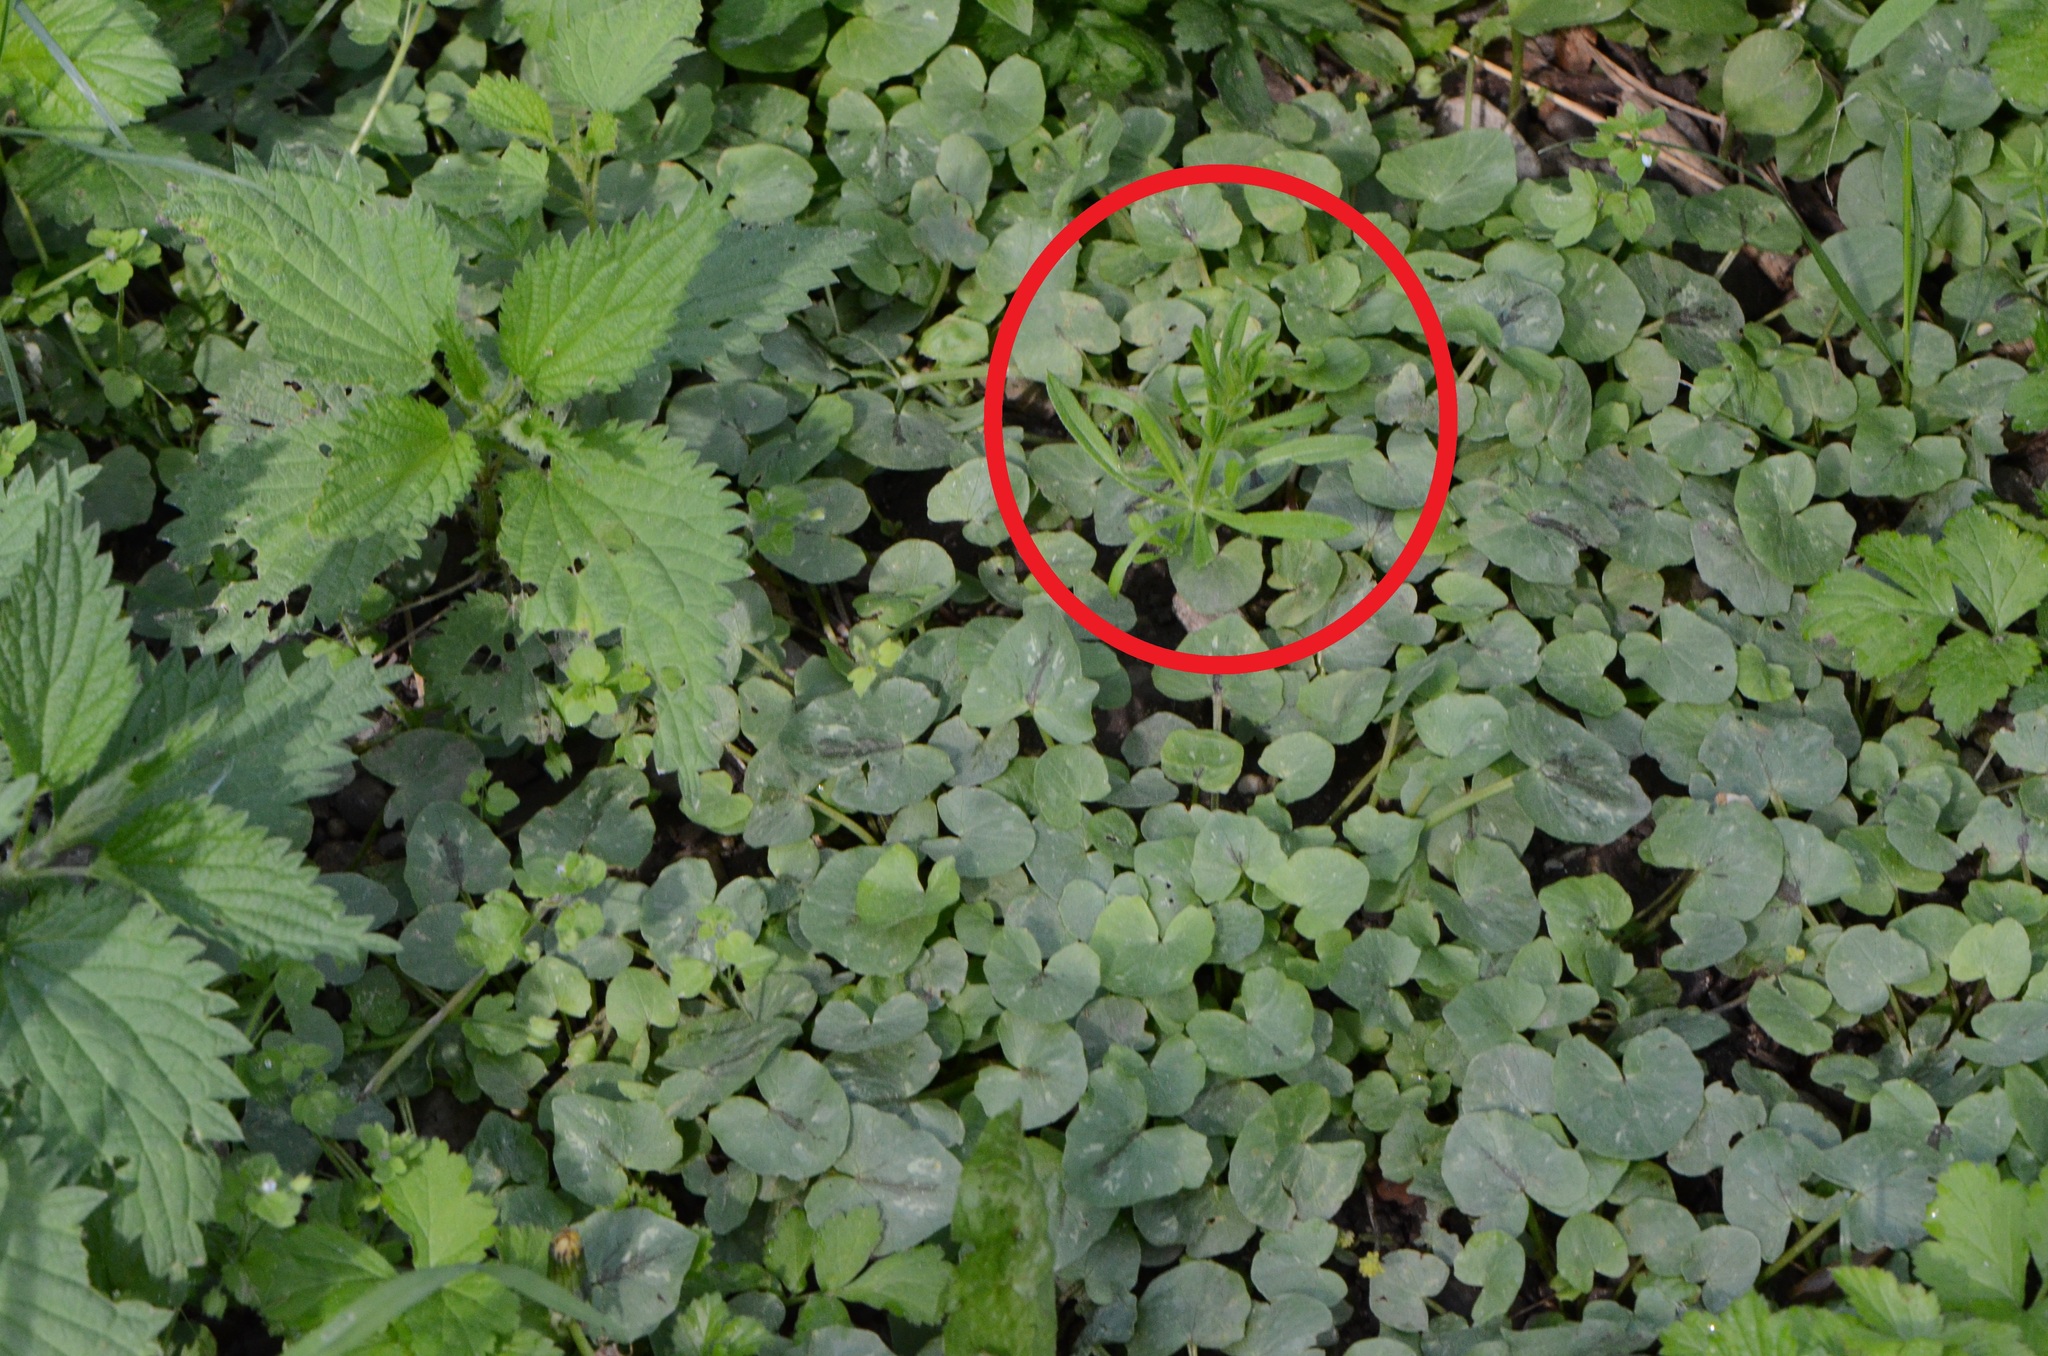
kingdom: Plantae
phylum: Tracheophyta
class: Magnoliopsida
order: Gentianales
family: Rubiaceae
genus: Galium
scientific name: Galium aparine
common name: Cleavers
